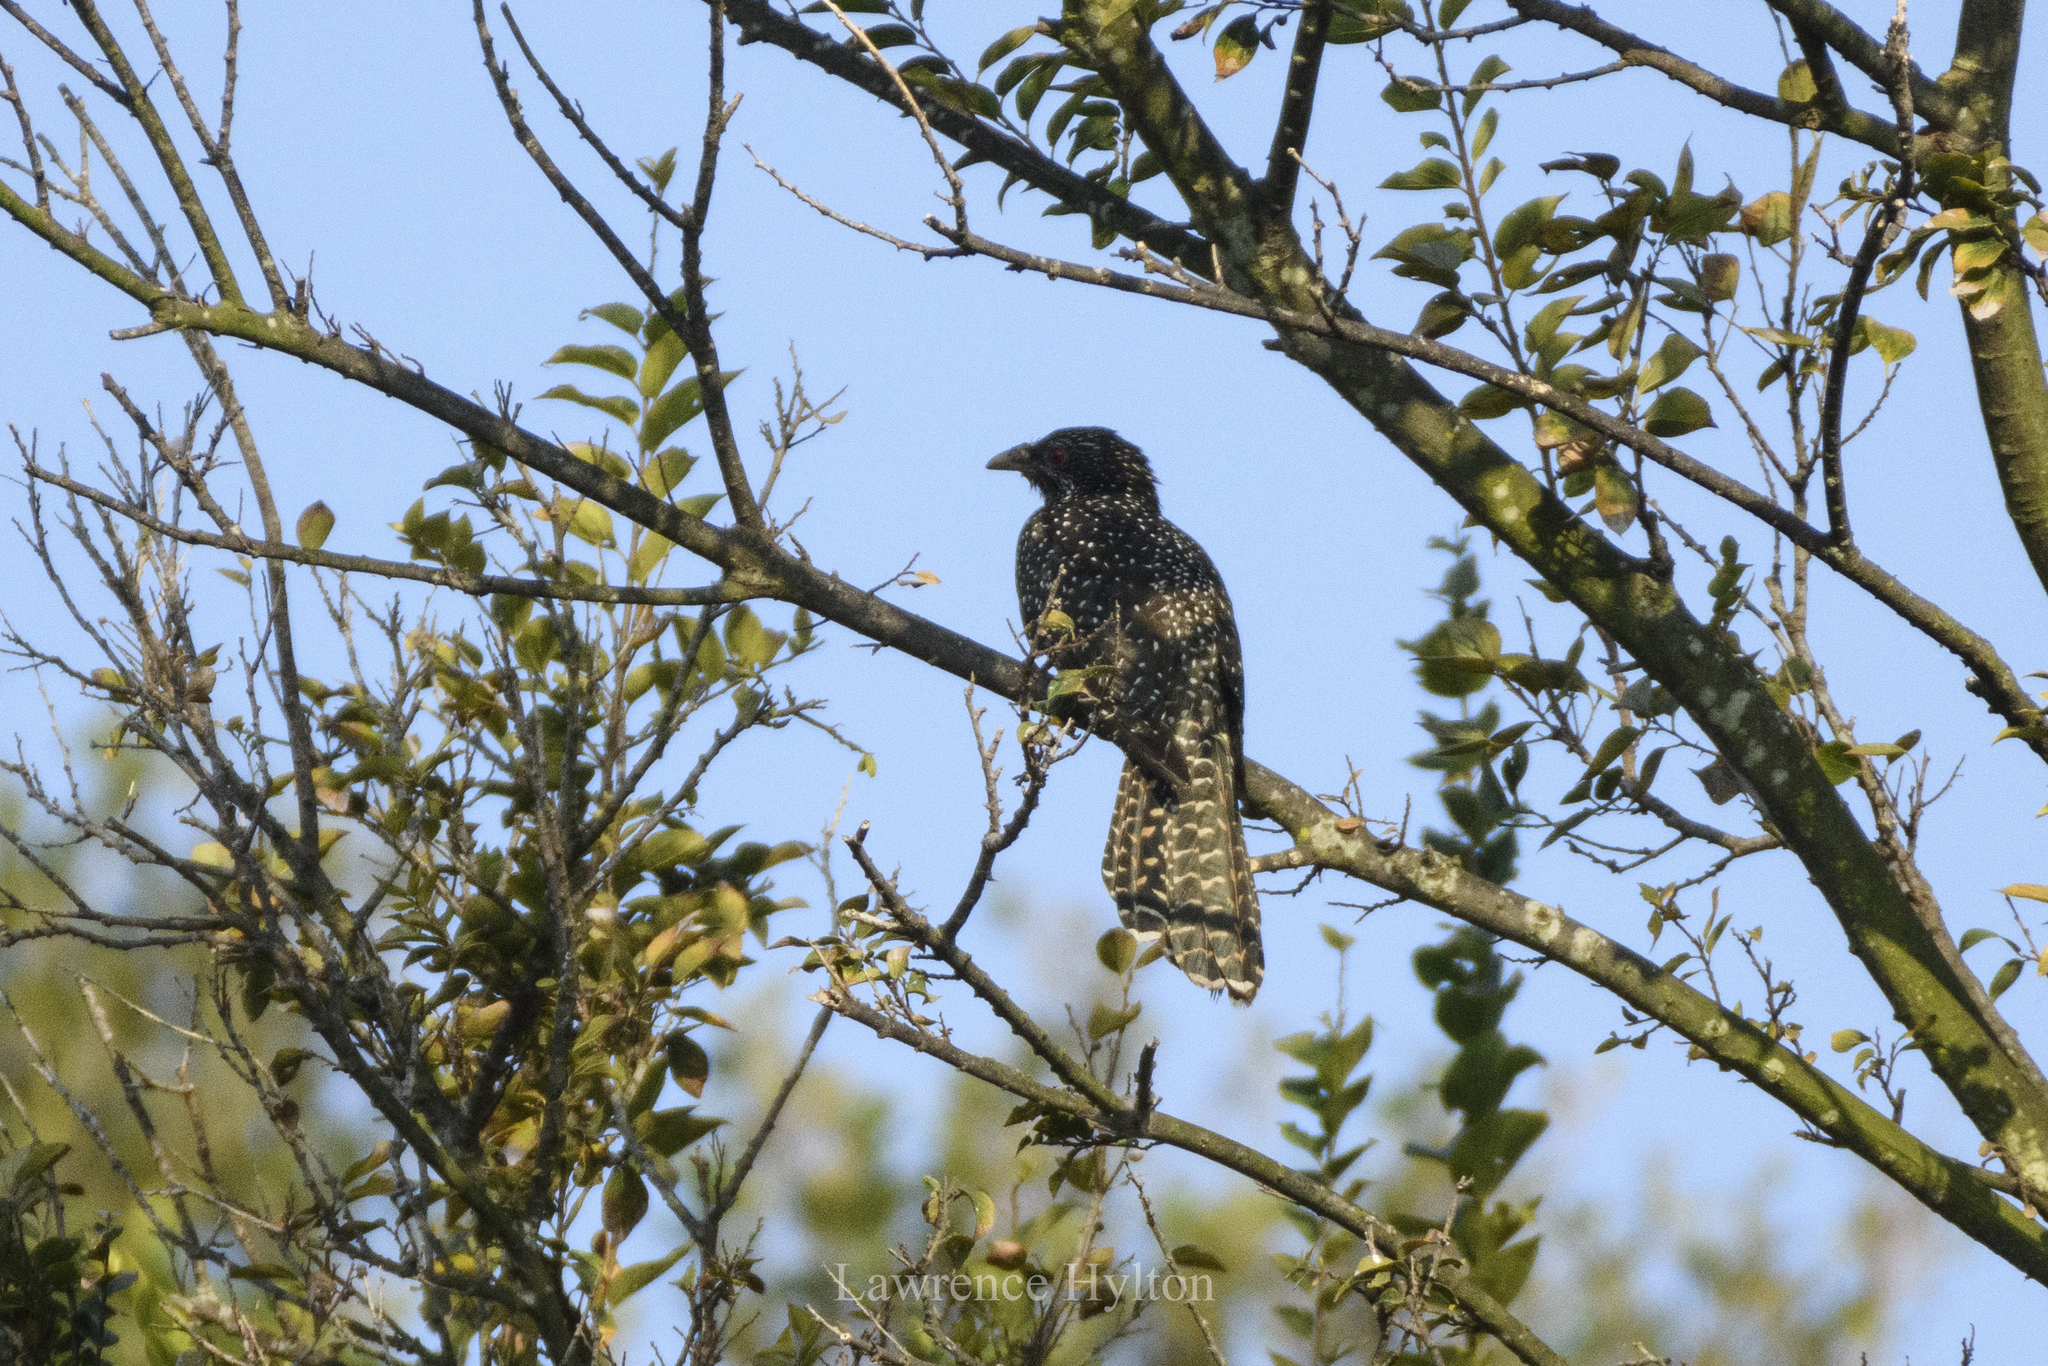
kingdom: Animalia
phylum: Chordata
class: Aves
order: Cuculiformes
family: Cuculidae
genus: Eudynamys
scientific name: Eudynamys scolopaceus
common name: Asian koel
